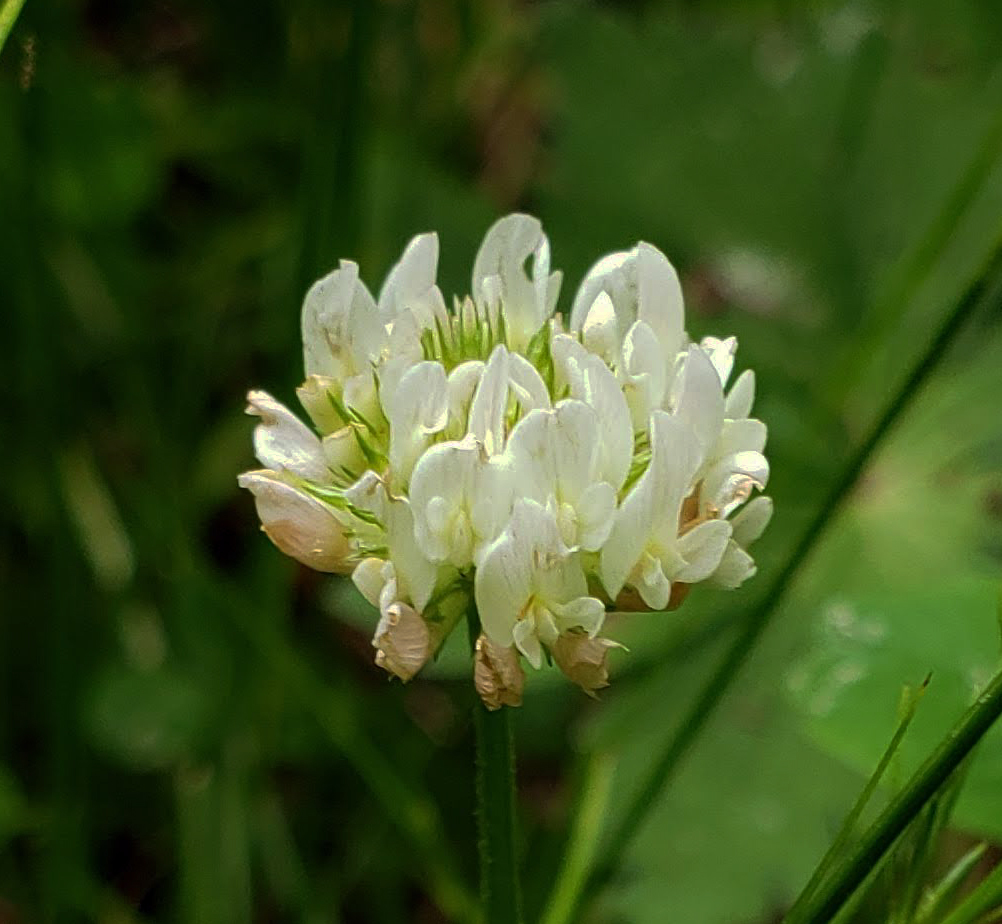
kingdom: Plantae
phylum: Tracheophyta
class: Magnoliopsida
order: Fabales
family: Fabaceae
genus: Trifolium
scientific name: Trifolium repens
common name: White clover
